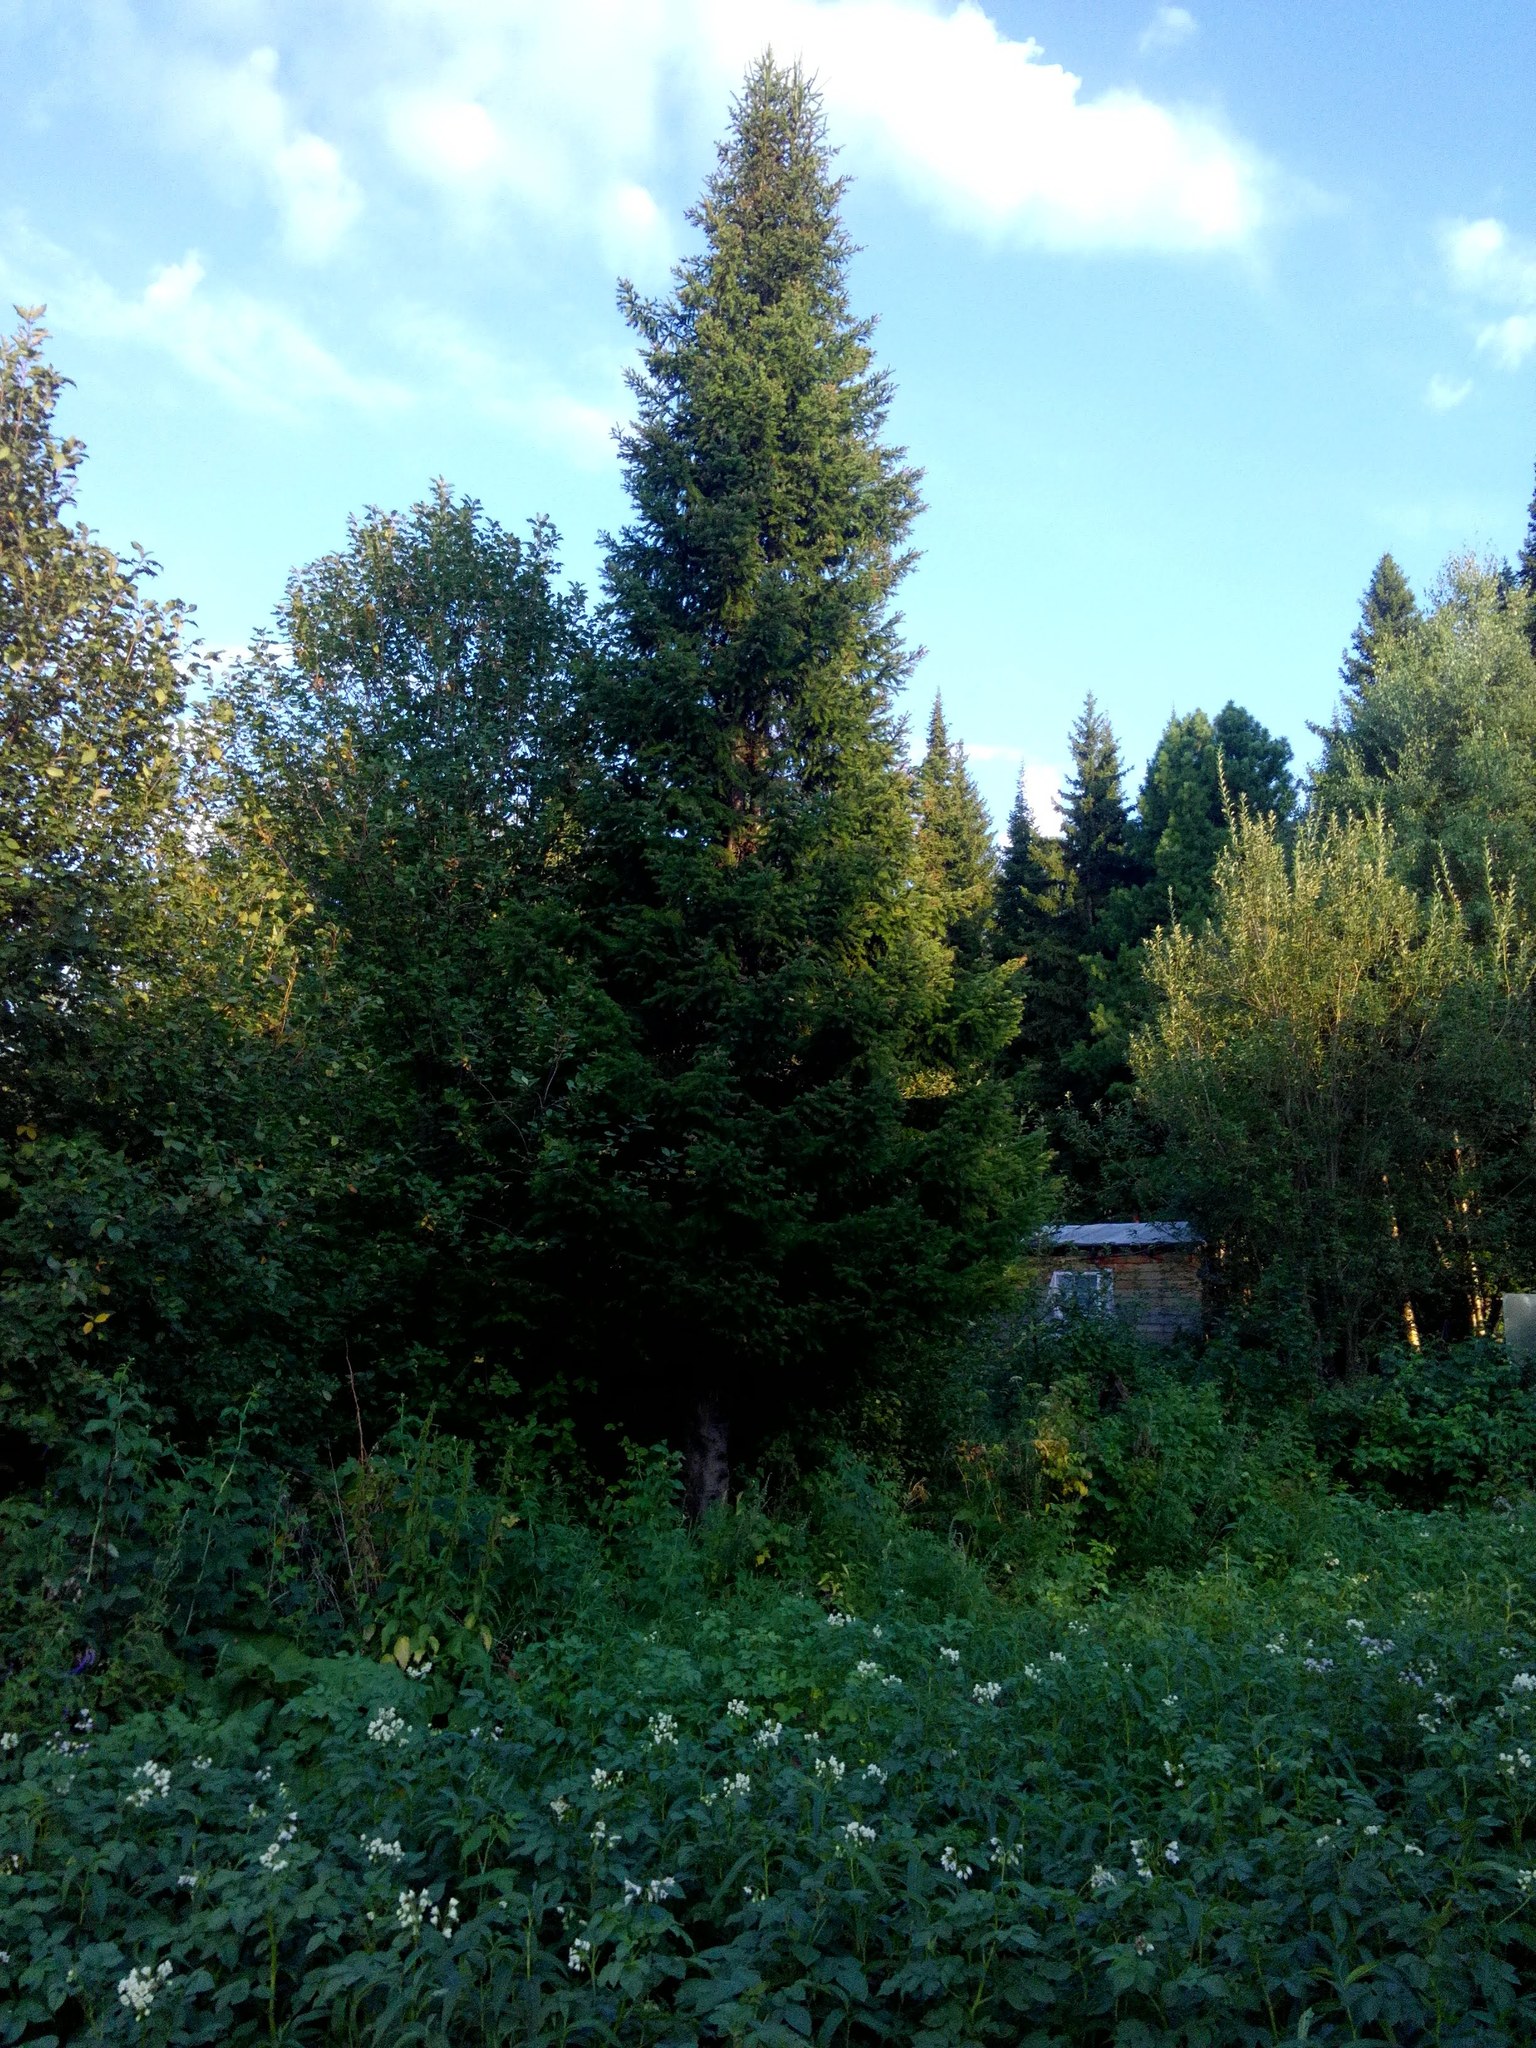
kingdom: Plantae
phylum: Tracheophyta
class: Pinopsida
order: Pinales
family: Pinaceae
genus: Abies
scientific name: Abies sibirica
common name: Siberian fir
